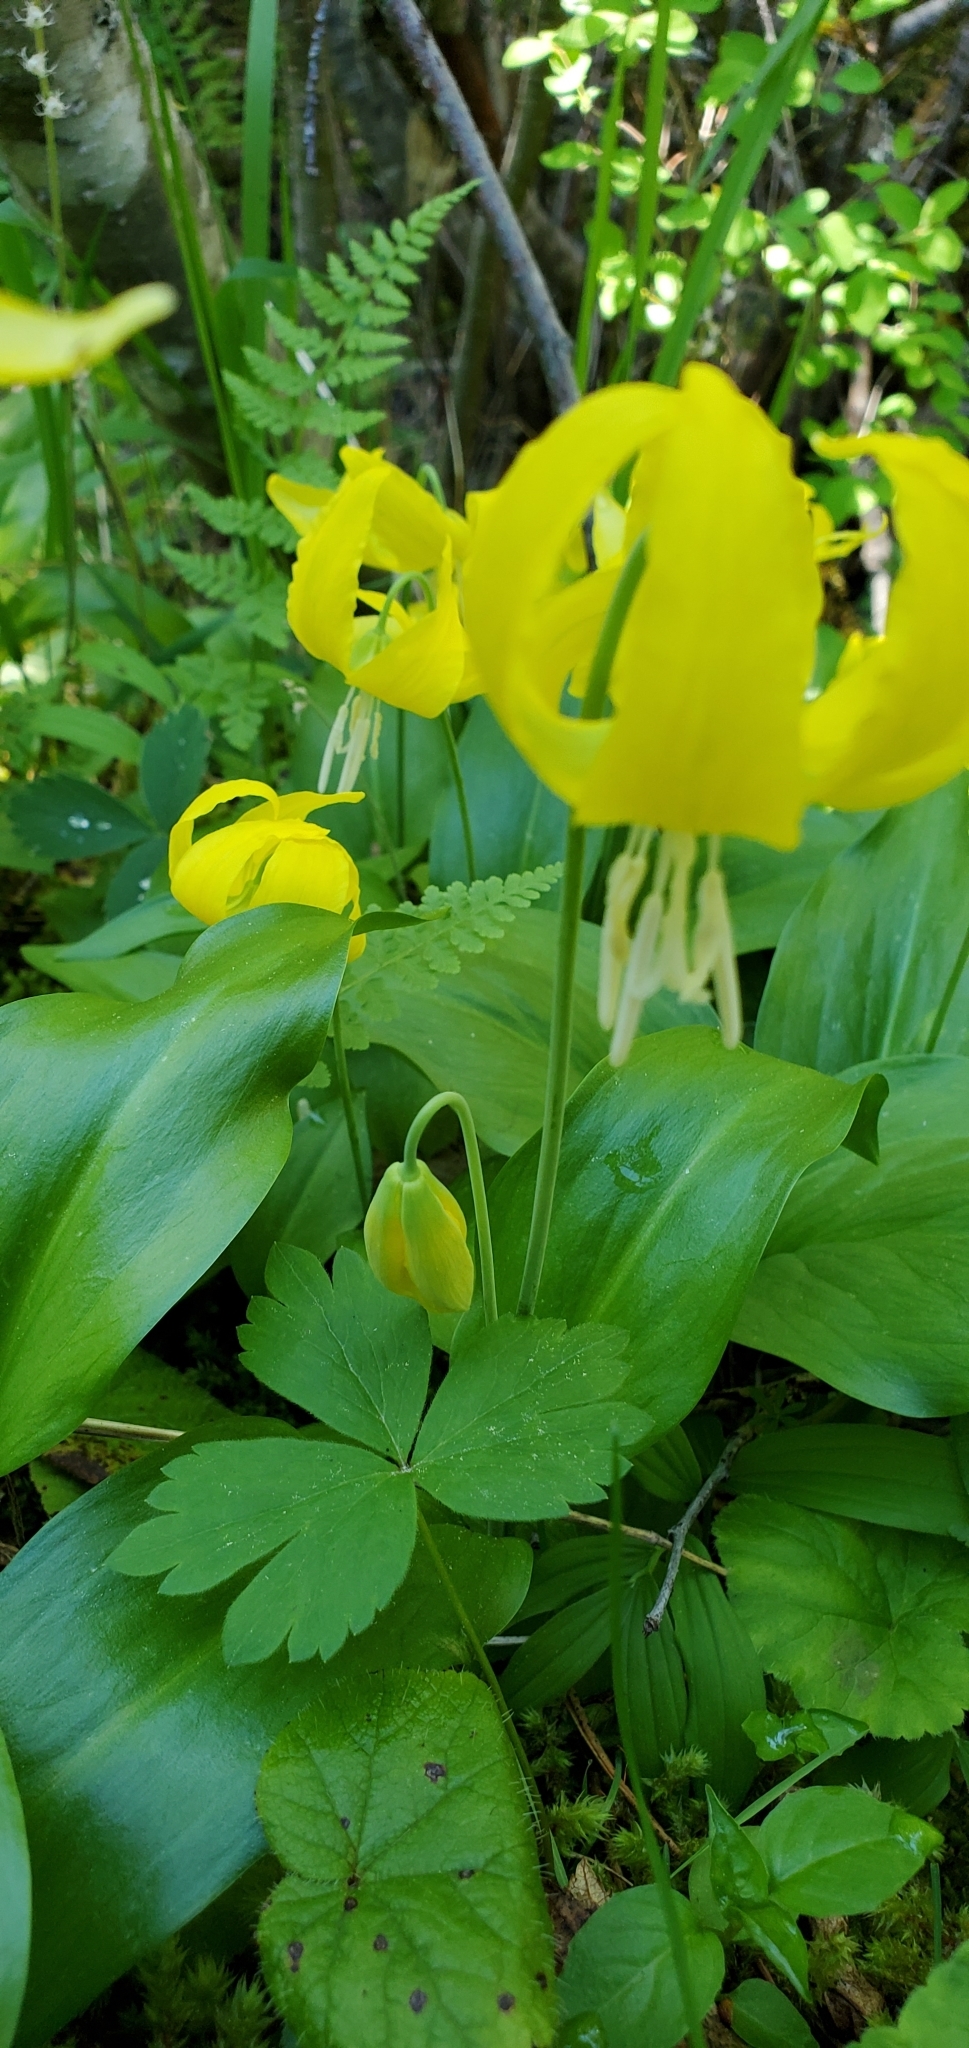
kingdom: Plantae
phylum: Tracheophyta
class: Liliopsida
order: Liliales
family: Liliaceae
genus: Erythronium
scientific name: Erythronium grandiflorum
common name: Avalanche-lily
